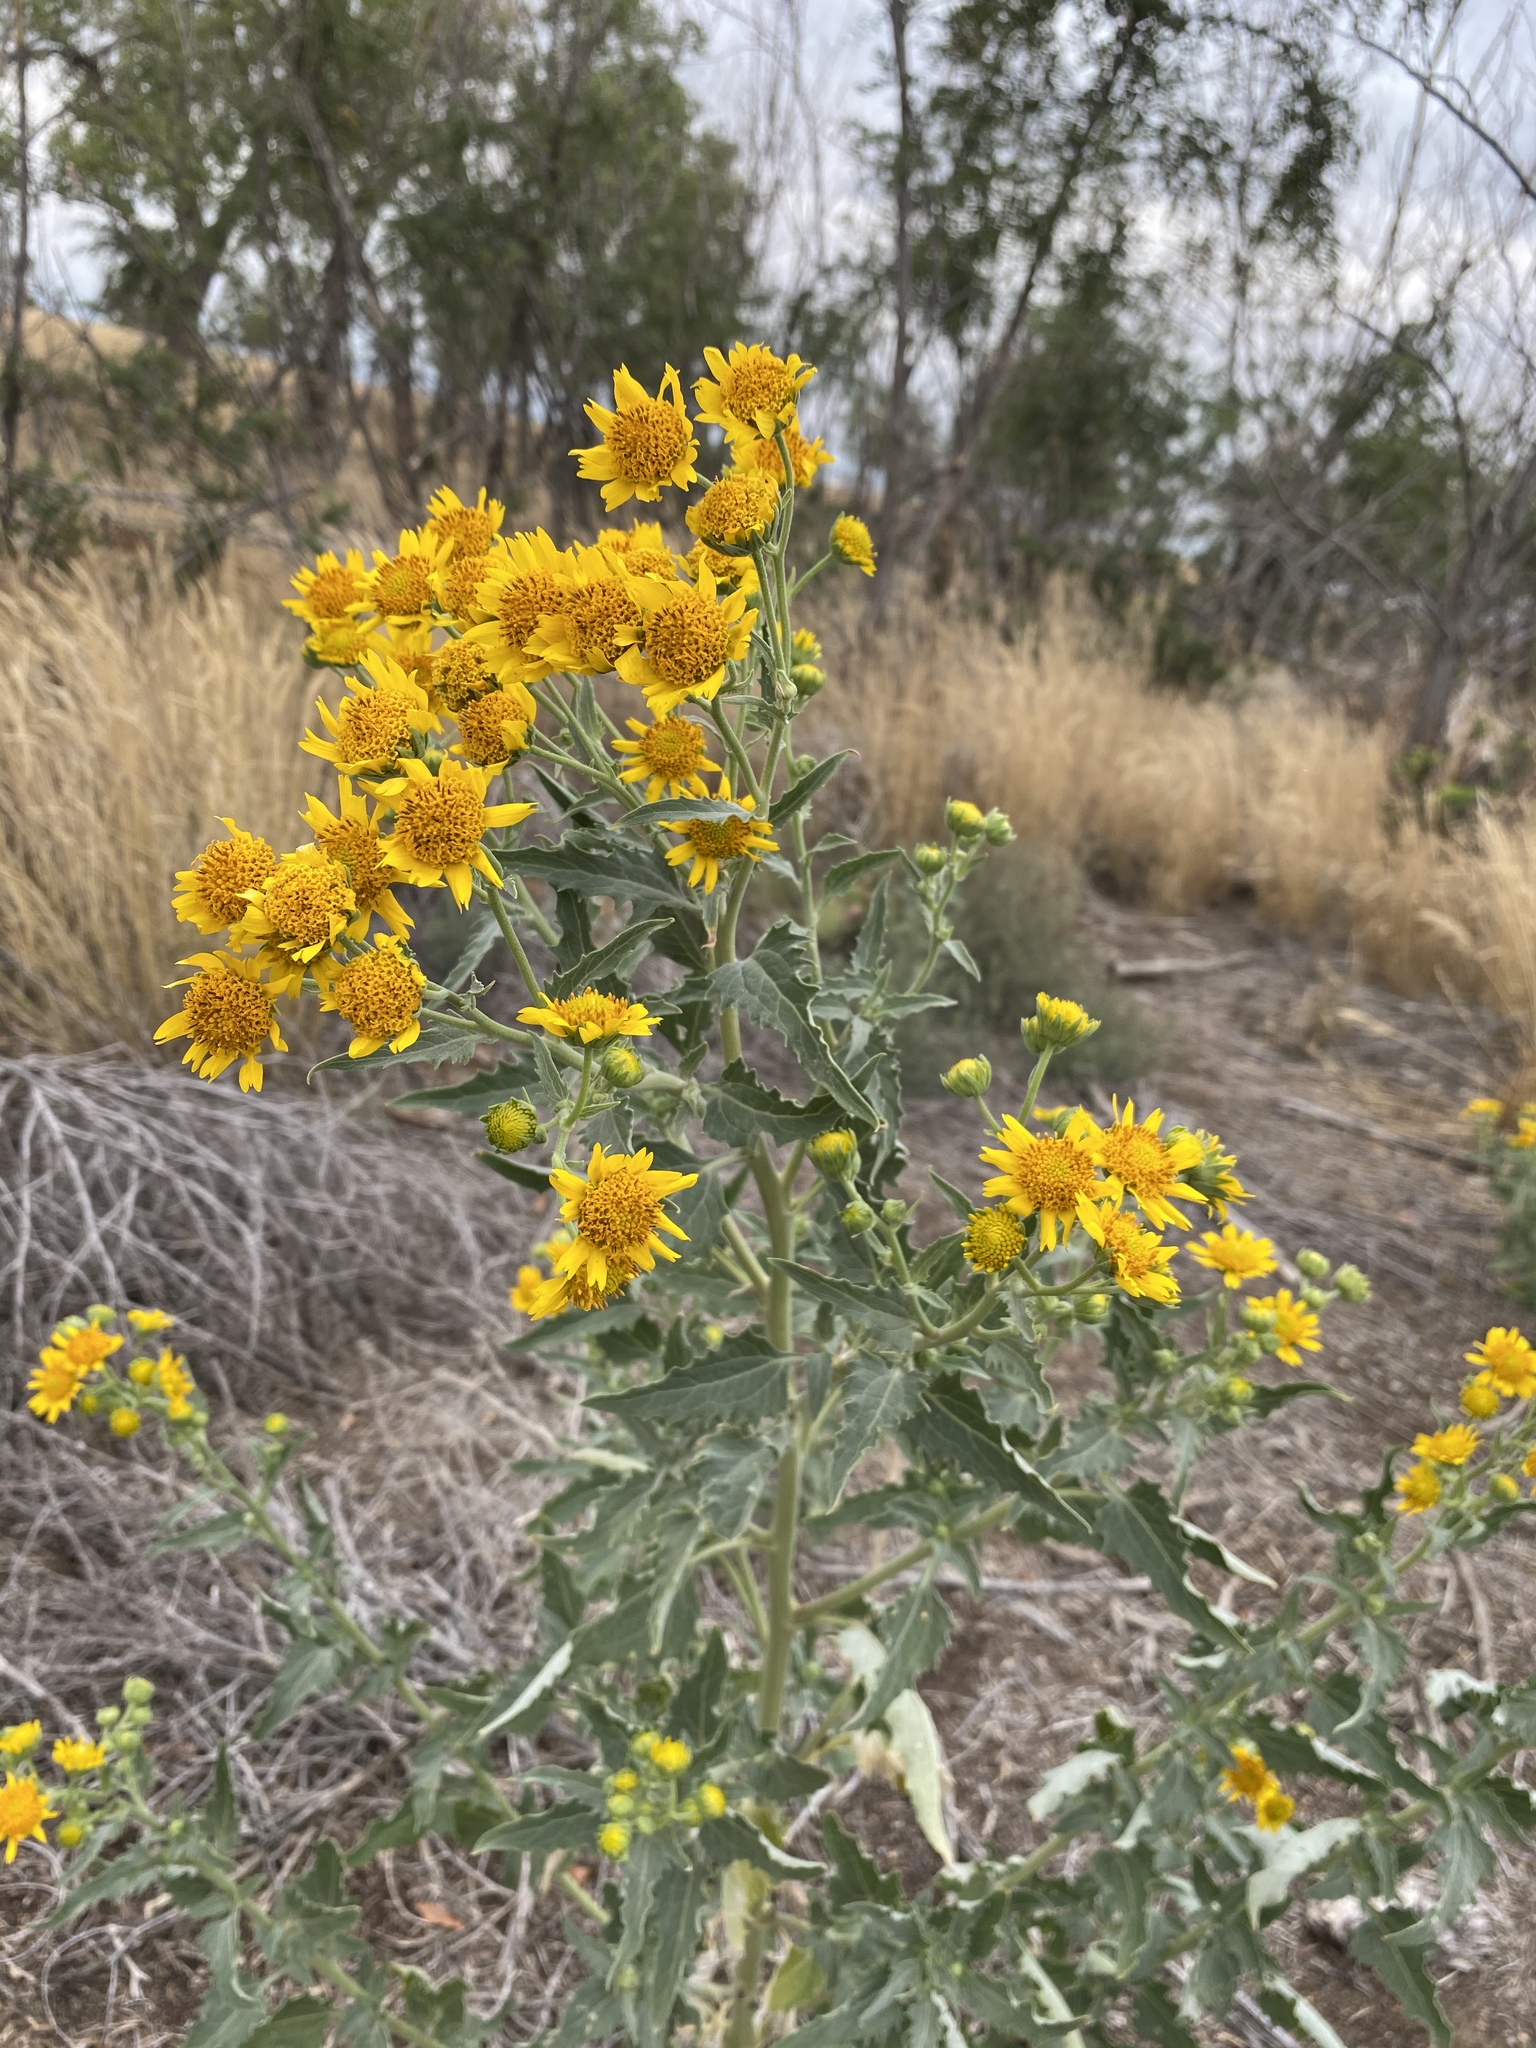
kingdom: Plantae
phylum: Tracheophyta
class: Magnoliopsida
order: Asterales
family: Asteraceae
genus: Verbesina
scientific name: Verbesina encelioides
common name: Golden crownbeard
